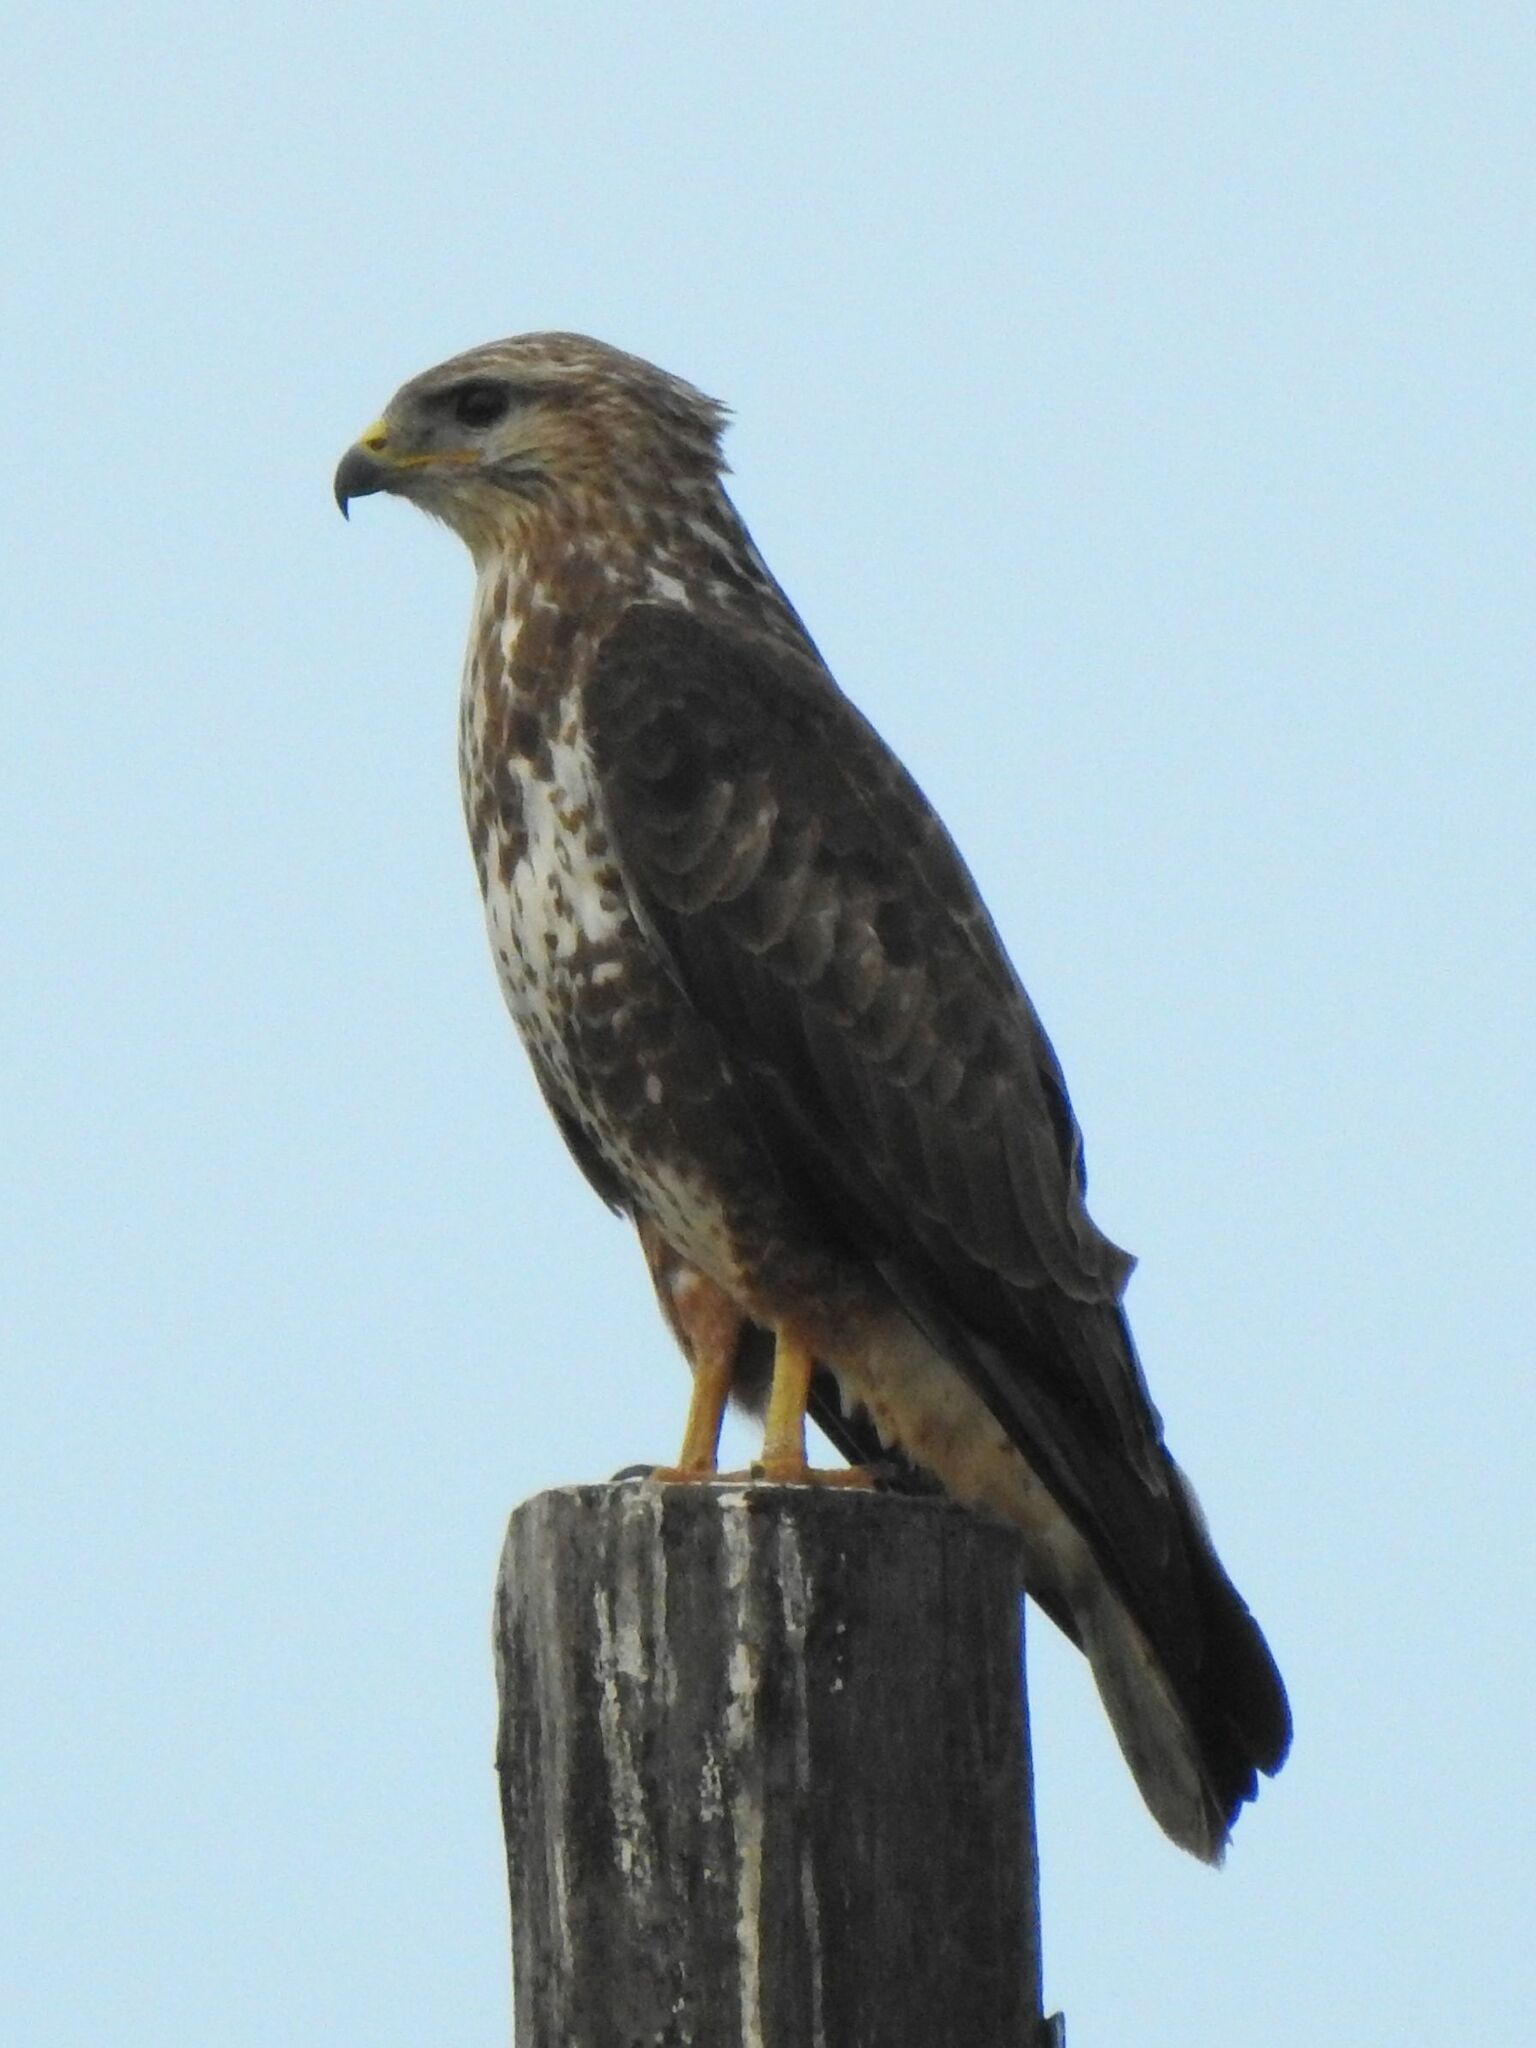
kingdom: Animalia
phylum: Chordata
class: Aves
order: Accipitriformes
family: Accipitridae
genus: Buteo
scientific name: Buteo buteo
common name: Common buzzard
